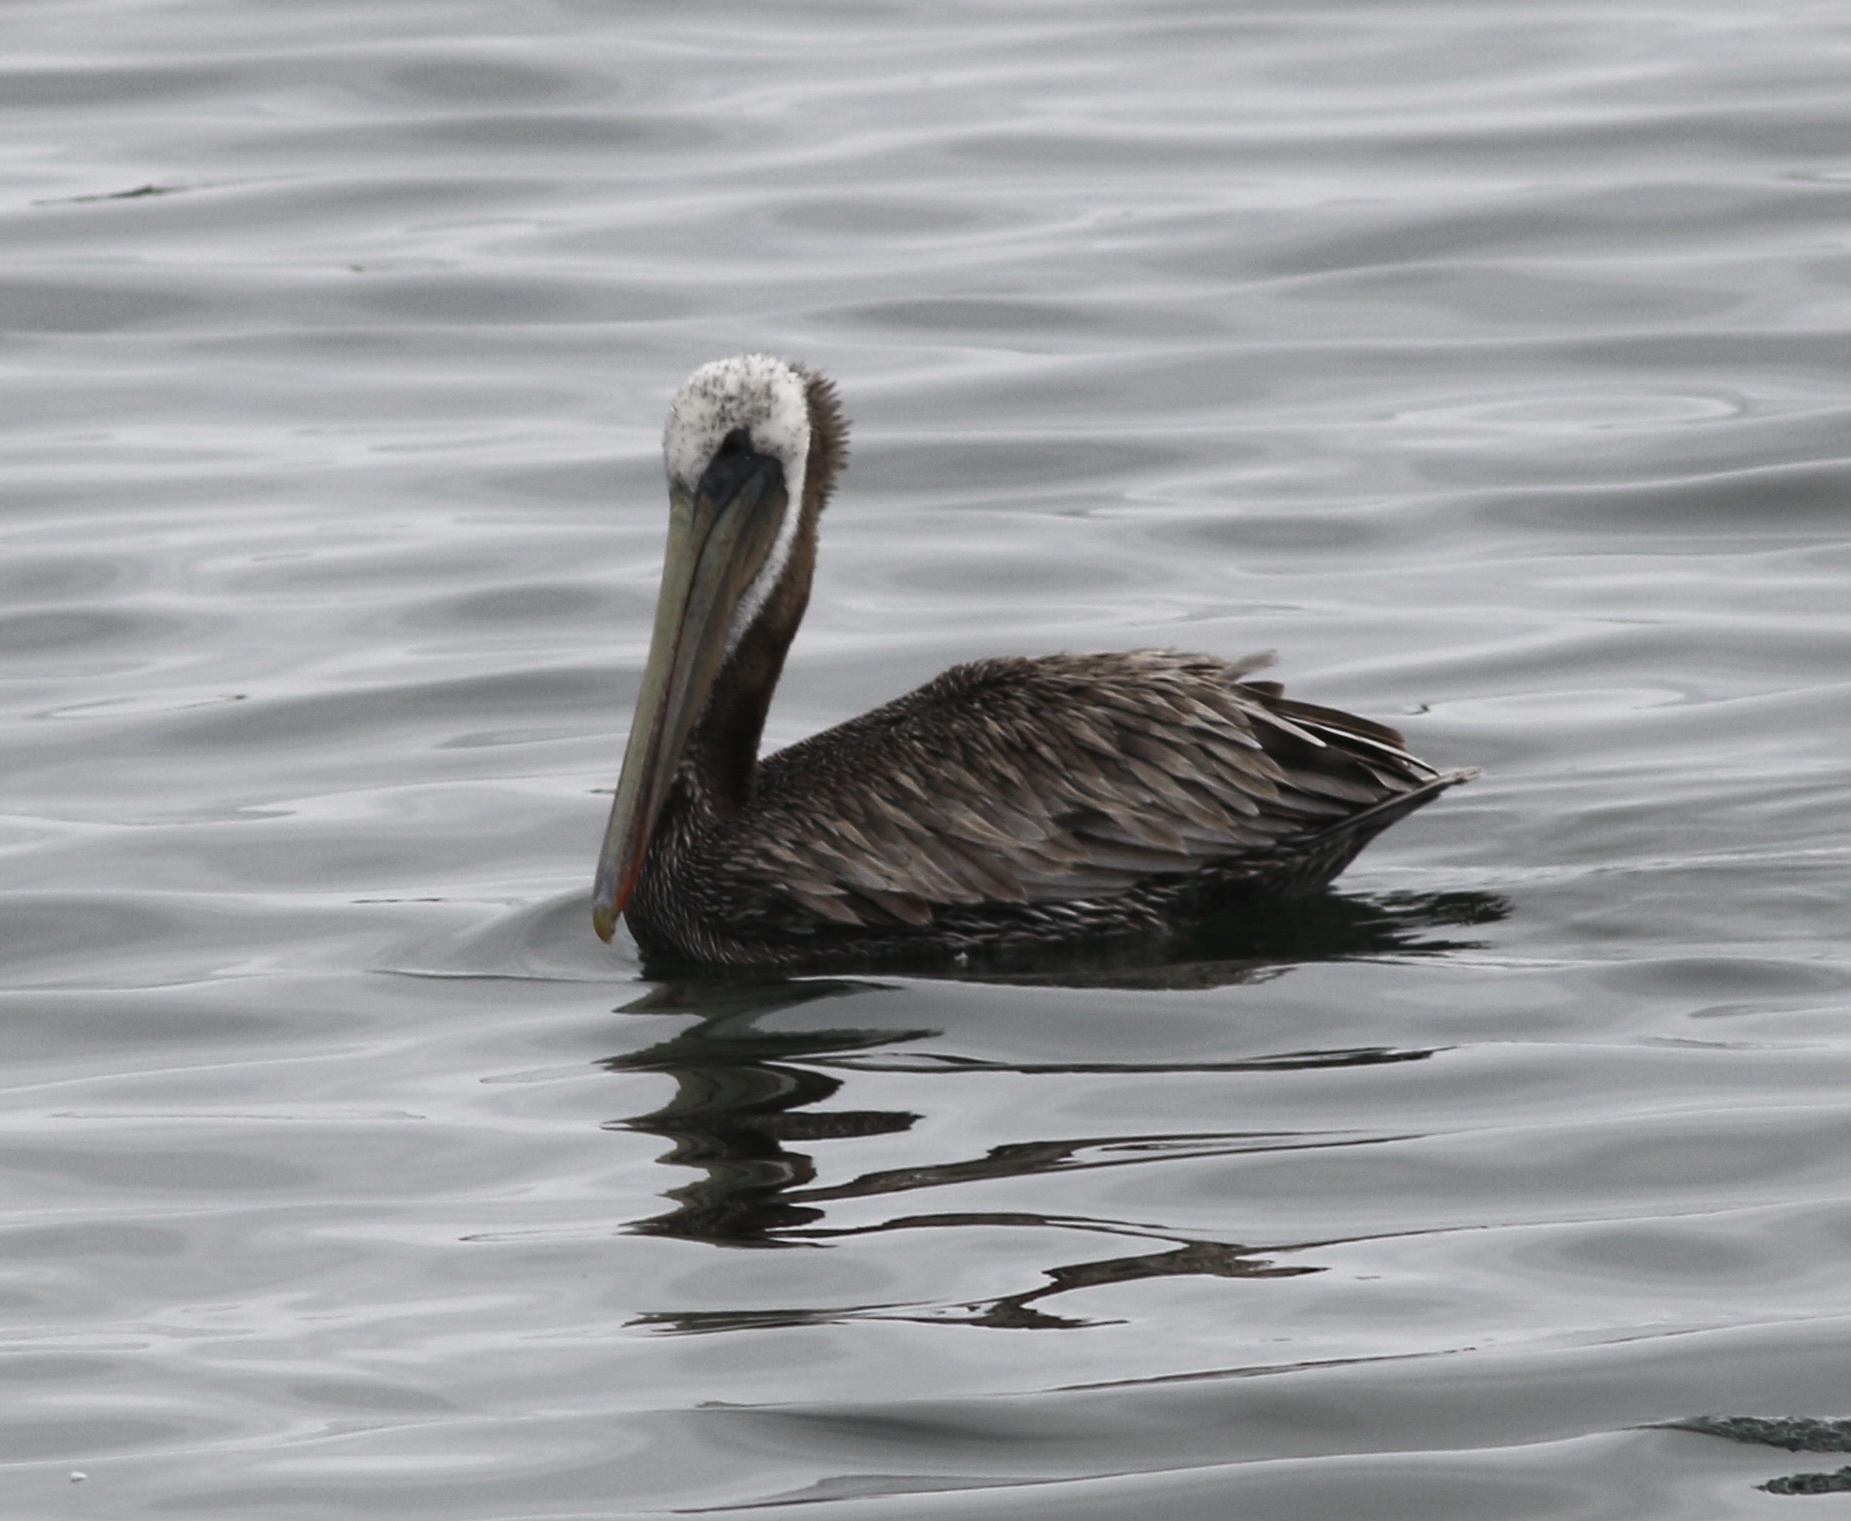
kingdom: Animalia
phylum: Chordata
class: Aves
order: Pelecaniformes
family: Pelecanidae
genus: Pelecanus
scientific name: Pelecanus occidentalis
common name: Brown pelican
